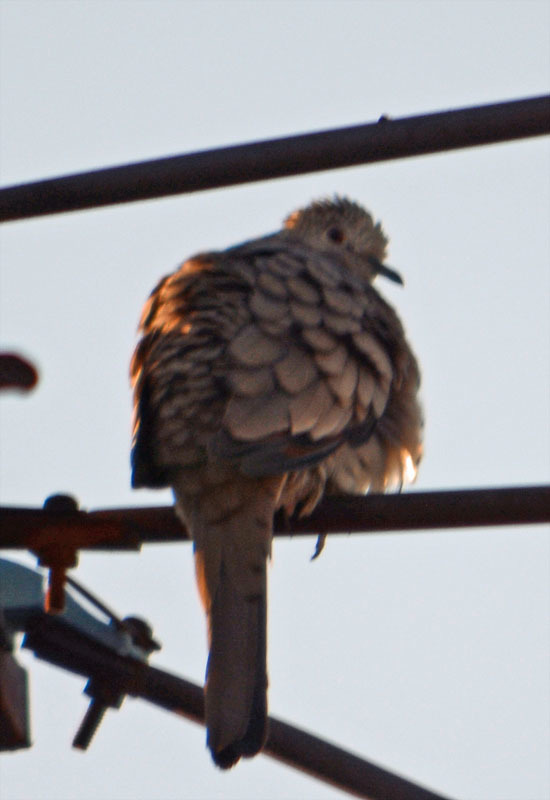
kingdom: Animalia
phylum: Chordata
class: Aves
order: Columbiformes
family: Columbidae
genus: Columbina
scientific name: Columbina inca
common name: Inca dove
